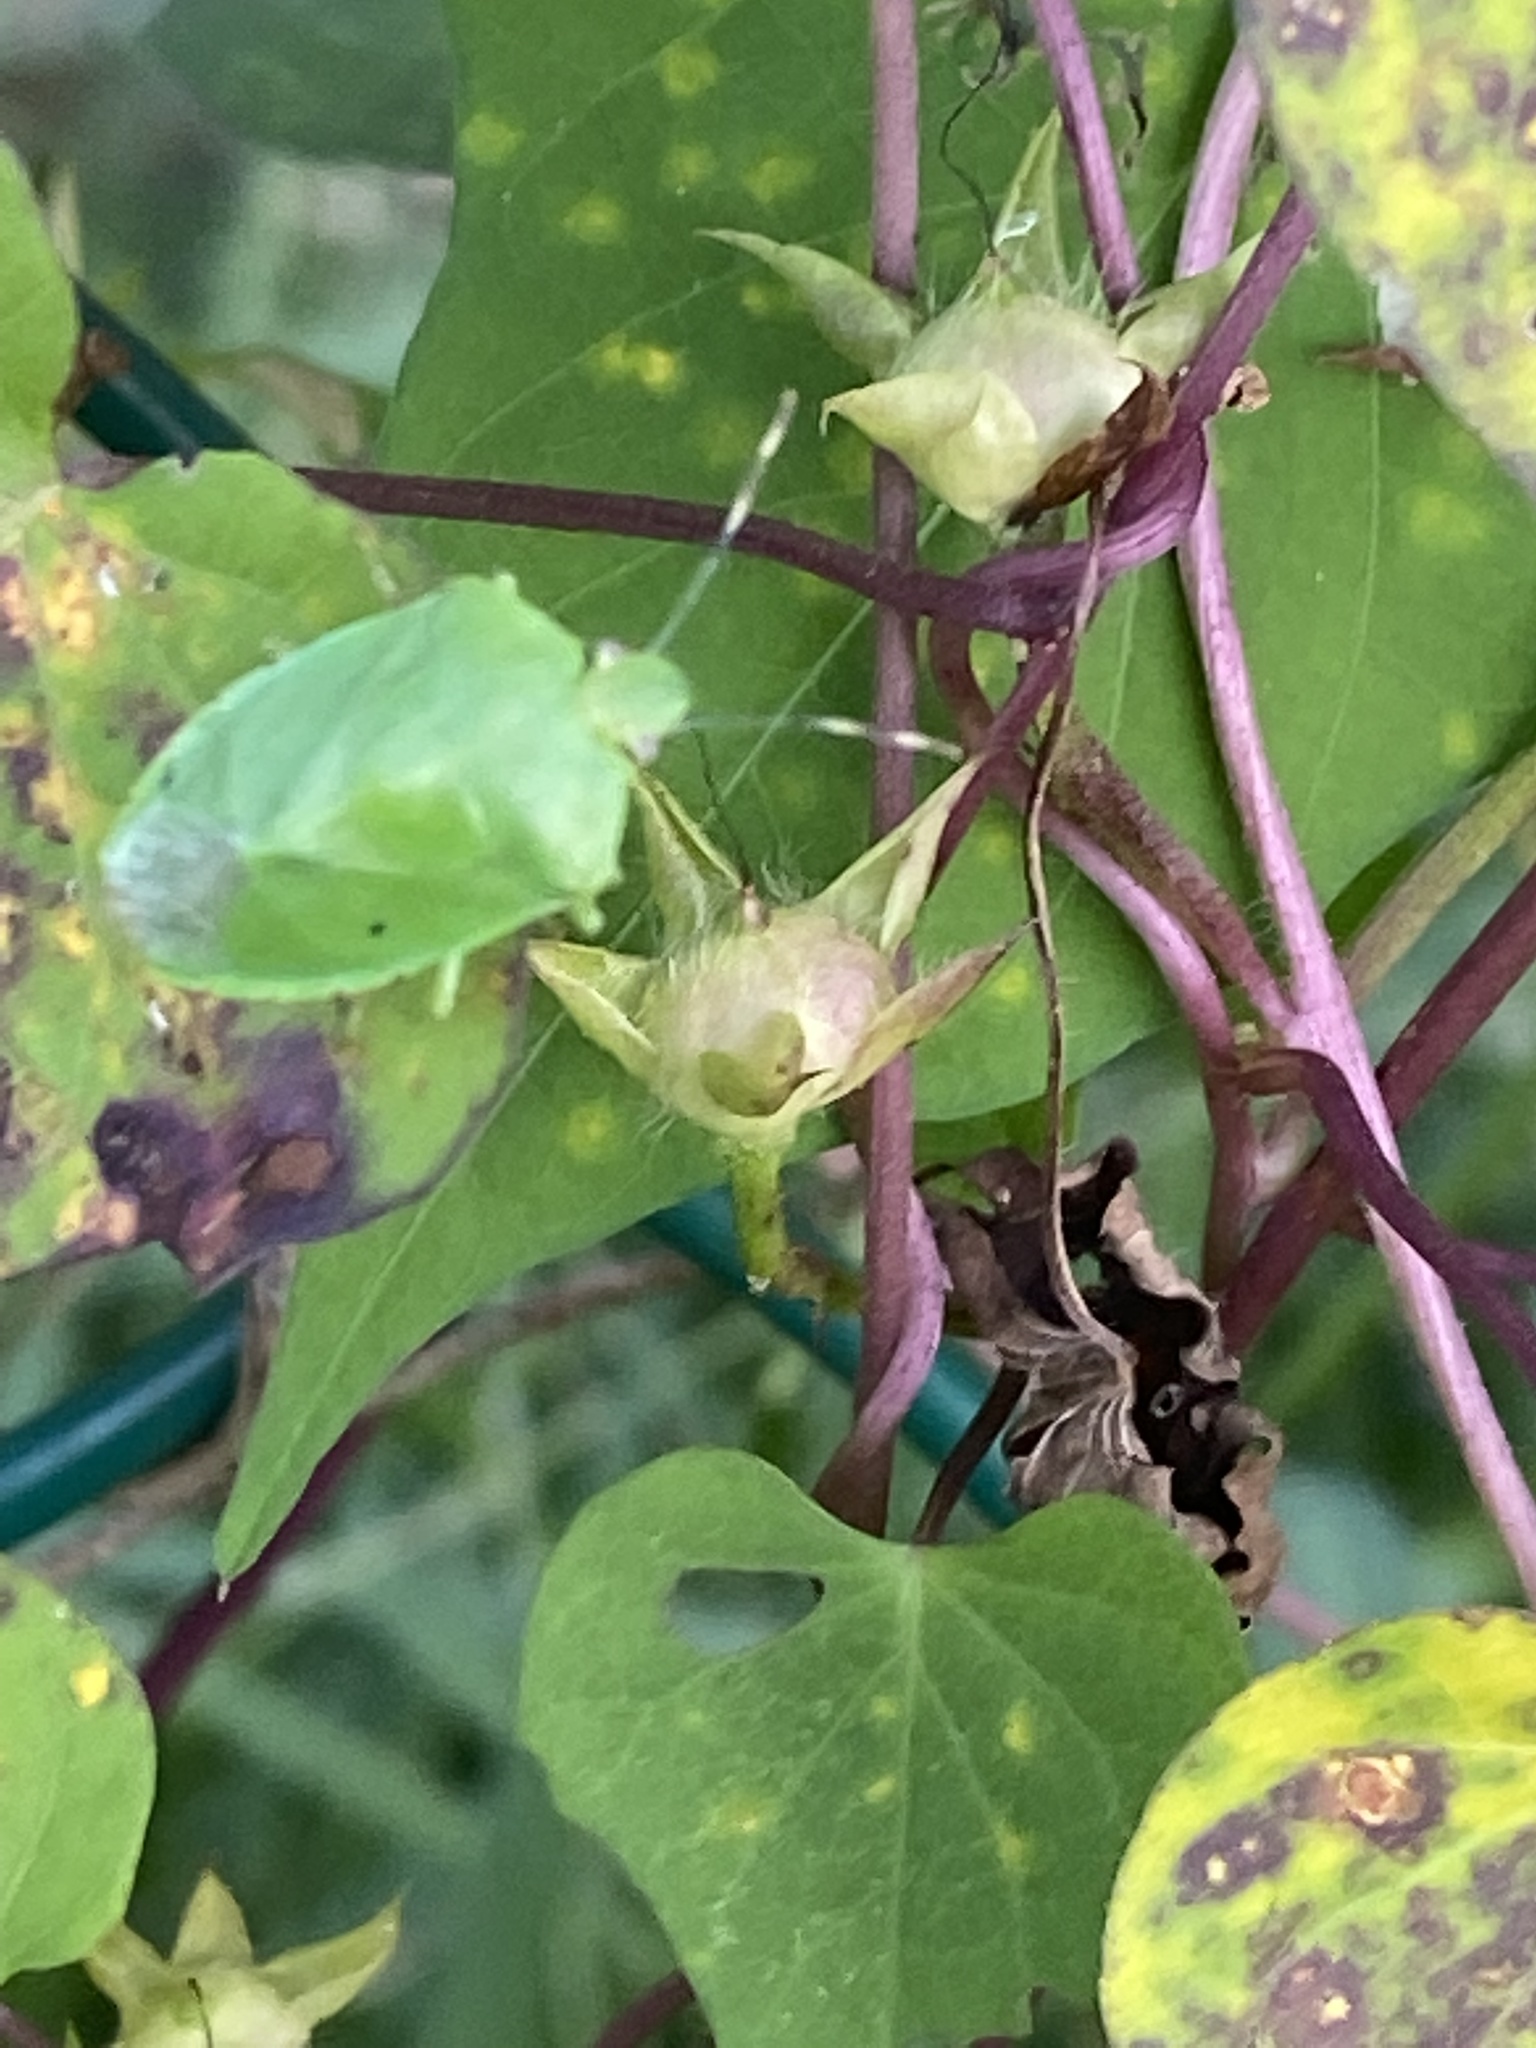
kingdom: Animalia
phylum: Arthropoda
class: Insecta
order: Hemiptera
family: Pentatomidae
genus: Chinavia
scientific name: Chinavia hilaris
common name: Green stink bug
